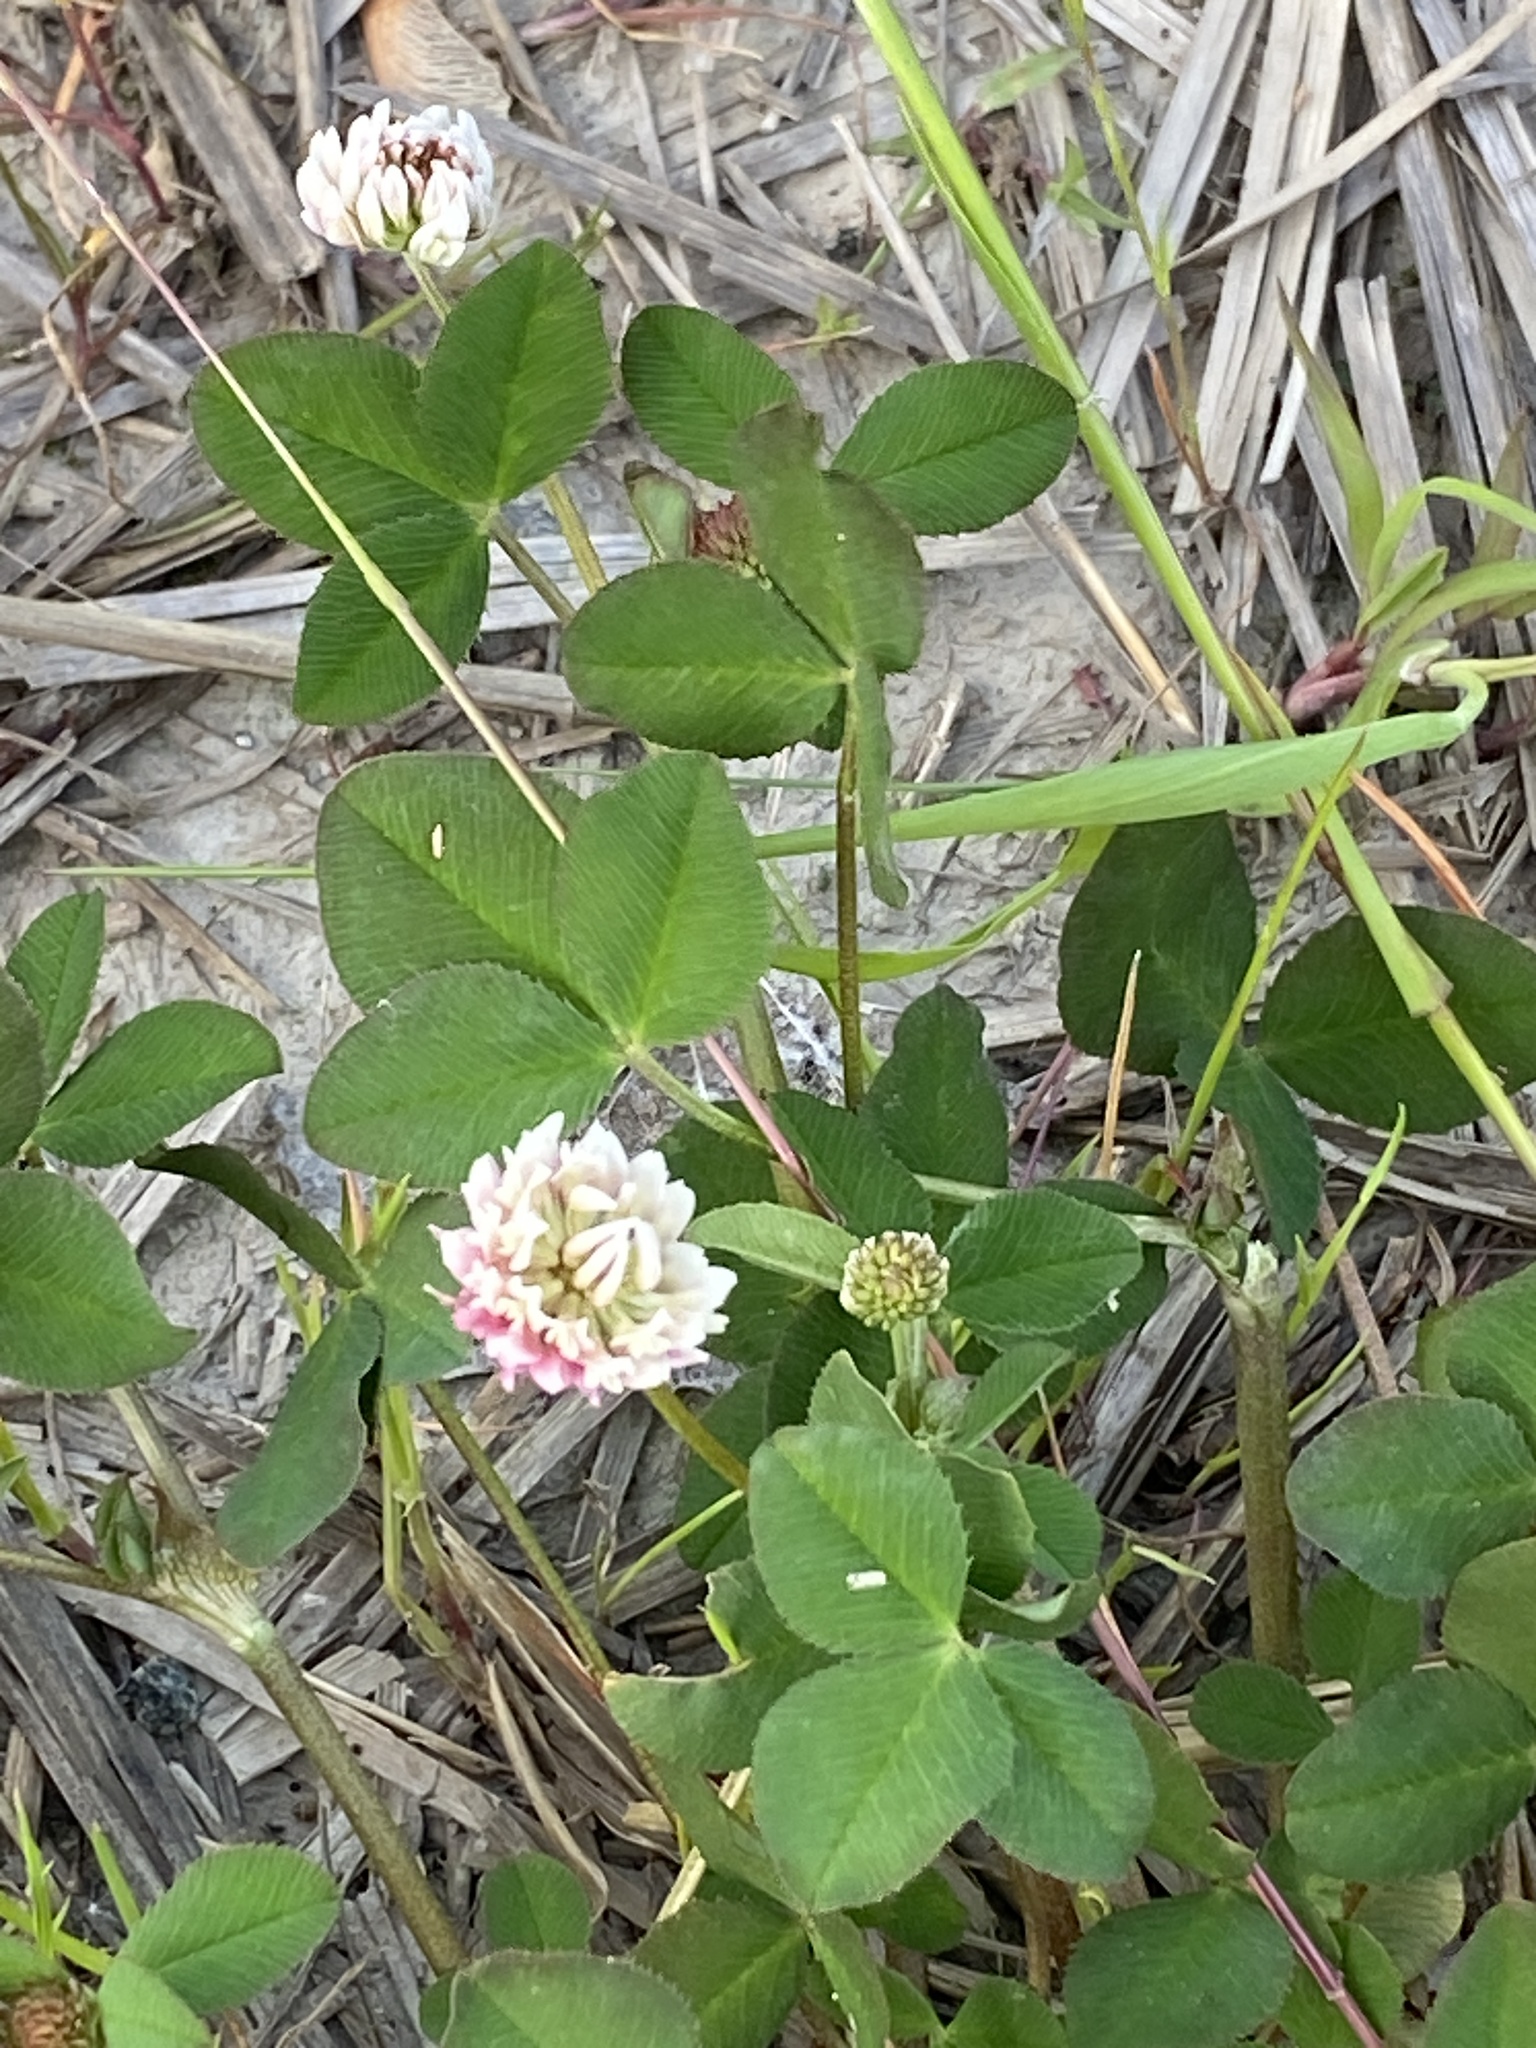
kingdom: Plantae
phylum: Tracheophyta
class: Magnoliopsida
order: Fabales
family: Fabaceae
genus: Trifolium
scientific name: Trifolium hybridum
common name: Alsike clover
